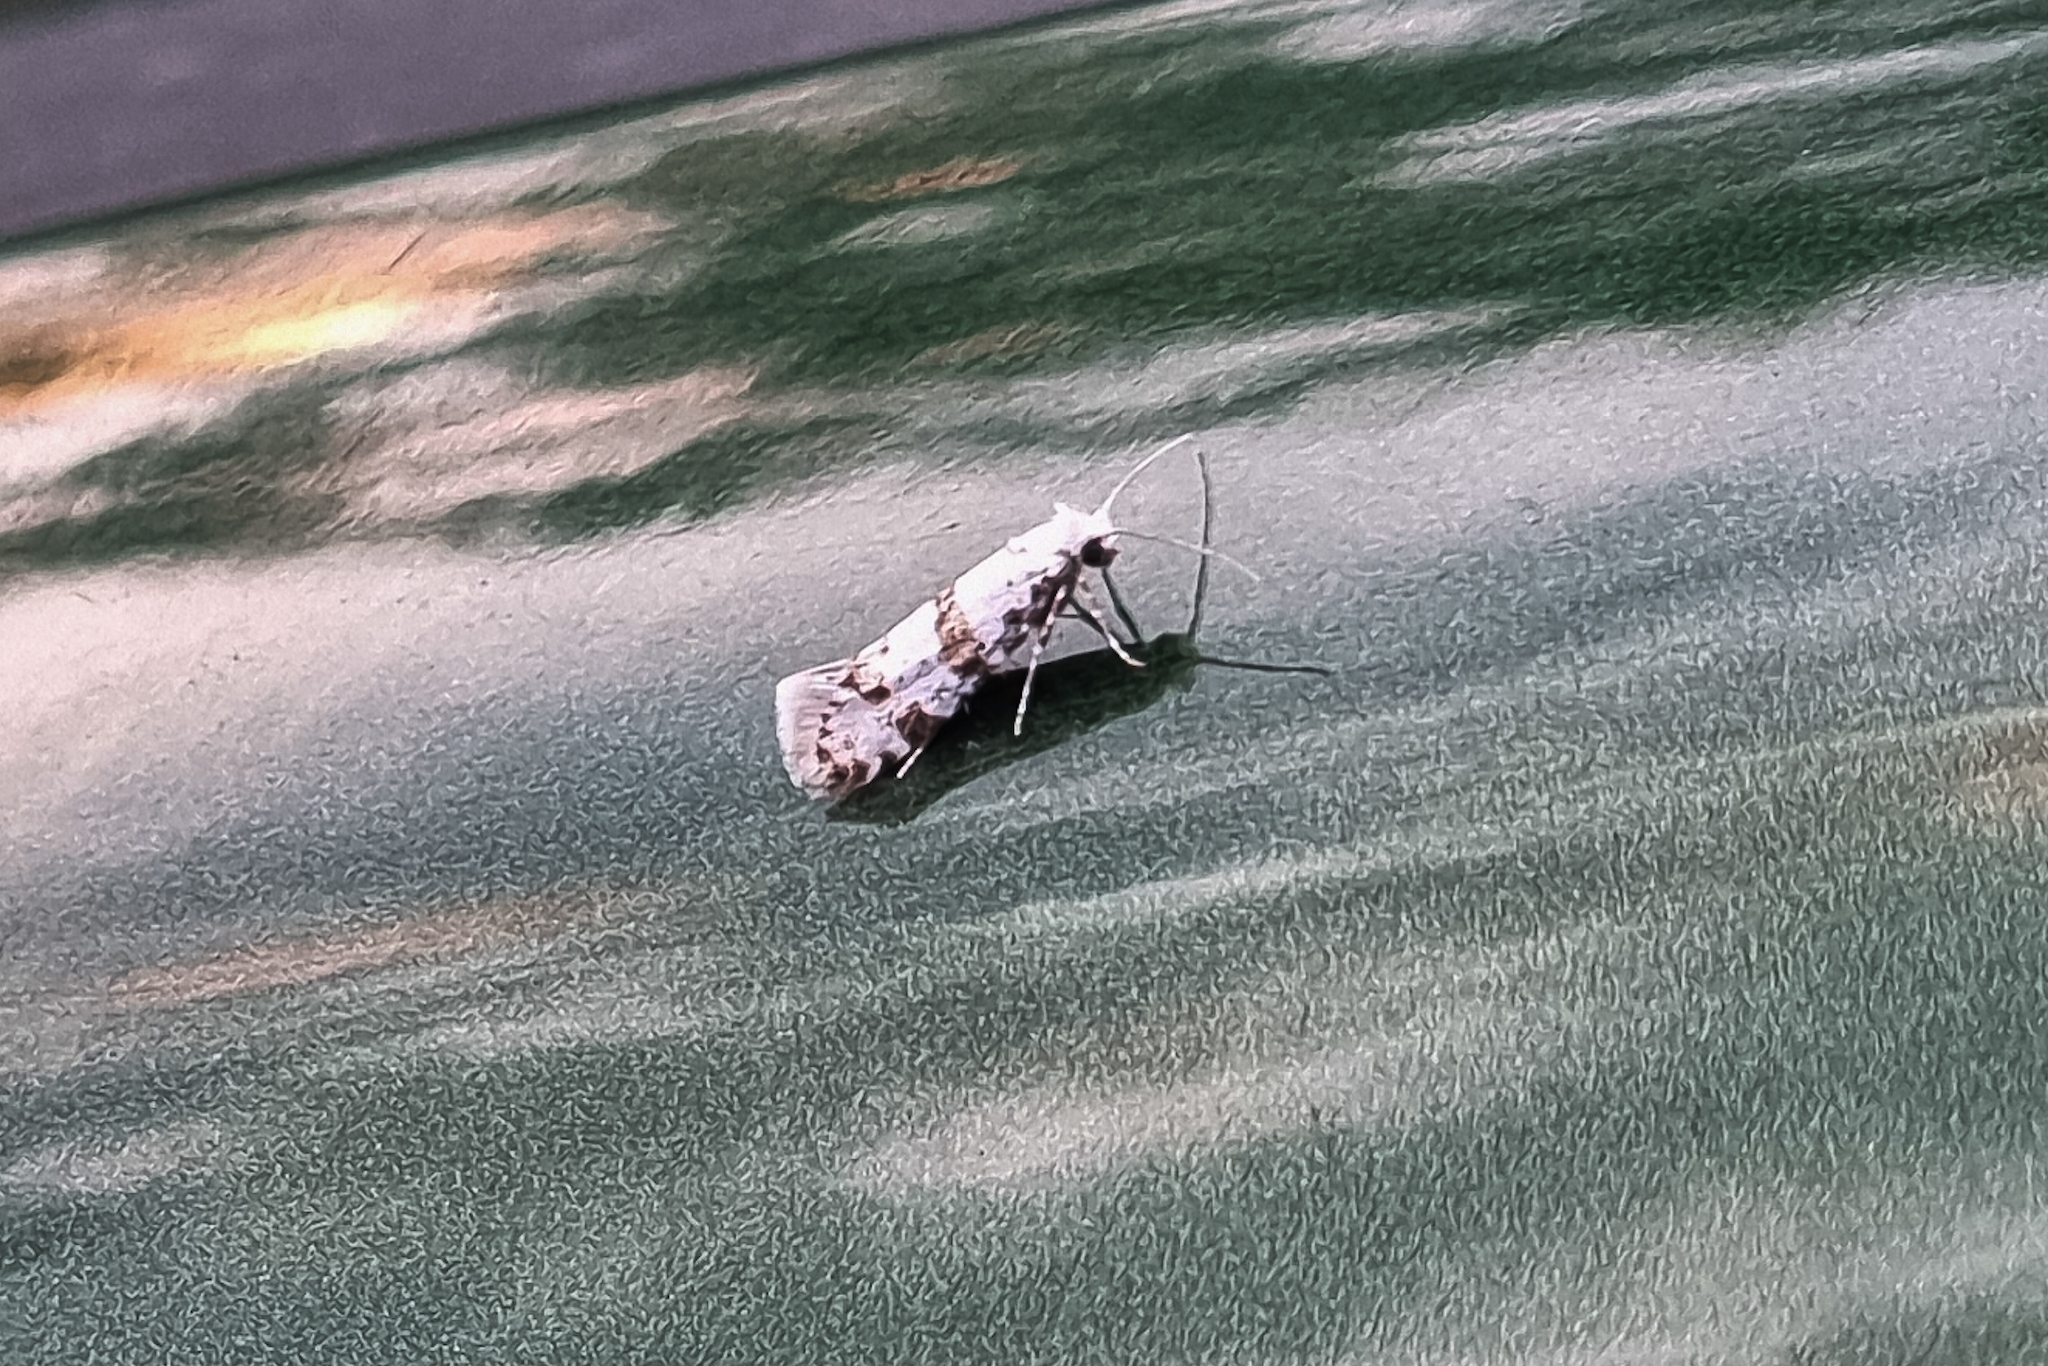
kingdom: Animalia
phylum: Arthropoda
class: Insecta
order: Lepidoptera
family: Yponomeutidae
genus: Scythropia
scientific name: Scythropia crataegella
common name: Hawthorn moth
